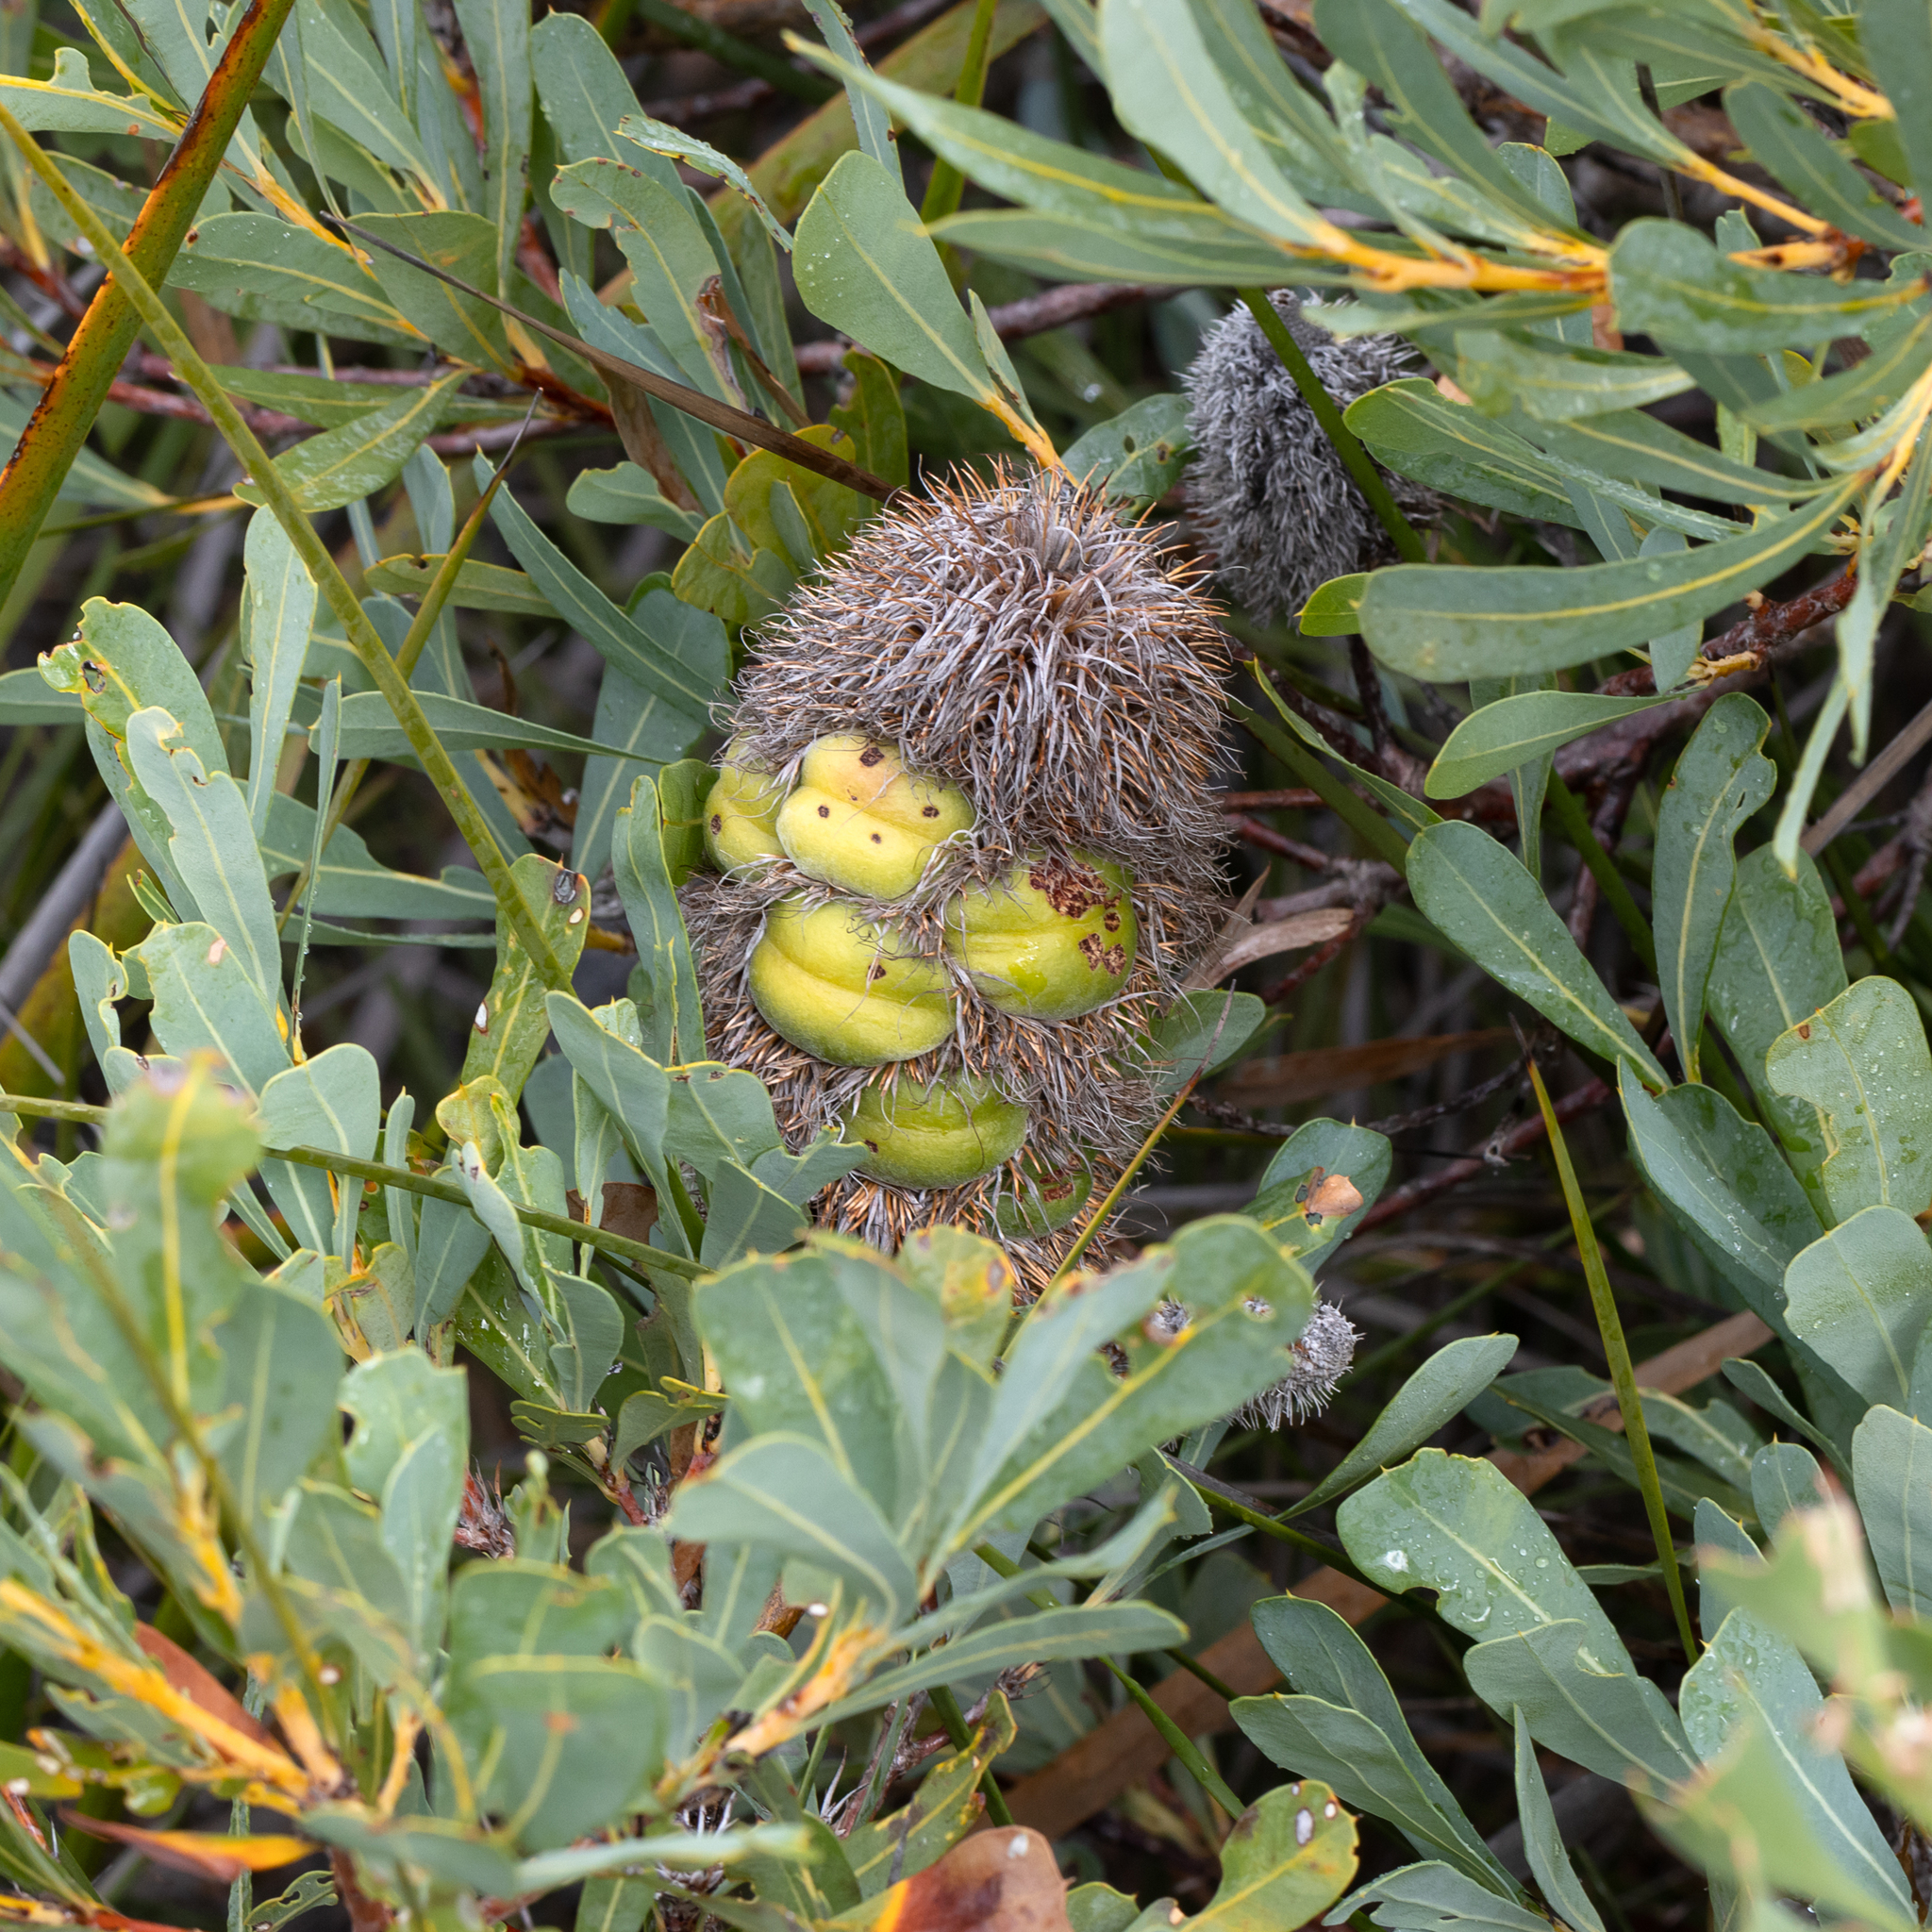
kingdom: Plantae
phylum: Tracheophyta
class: Magnoliopsida
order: Proteales
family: Proteaceae
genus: Banksia
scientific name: Banksia oreophila
